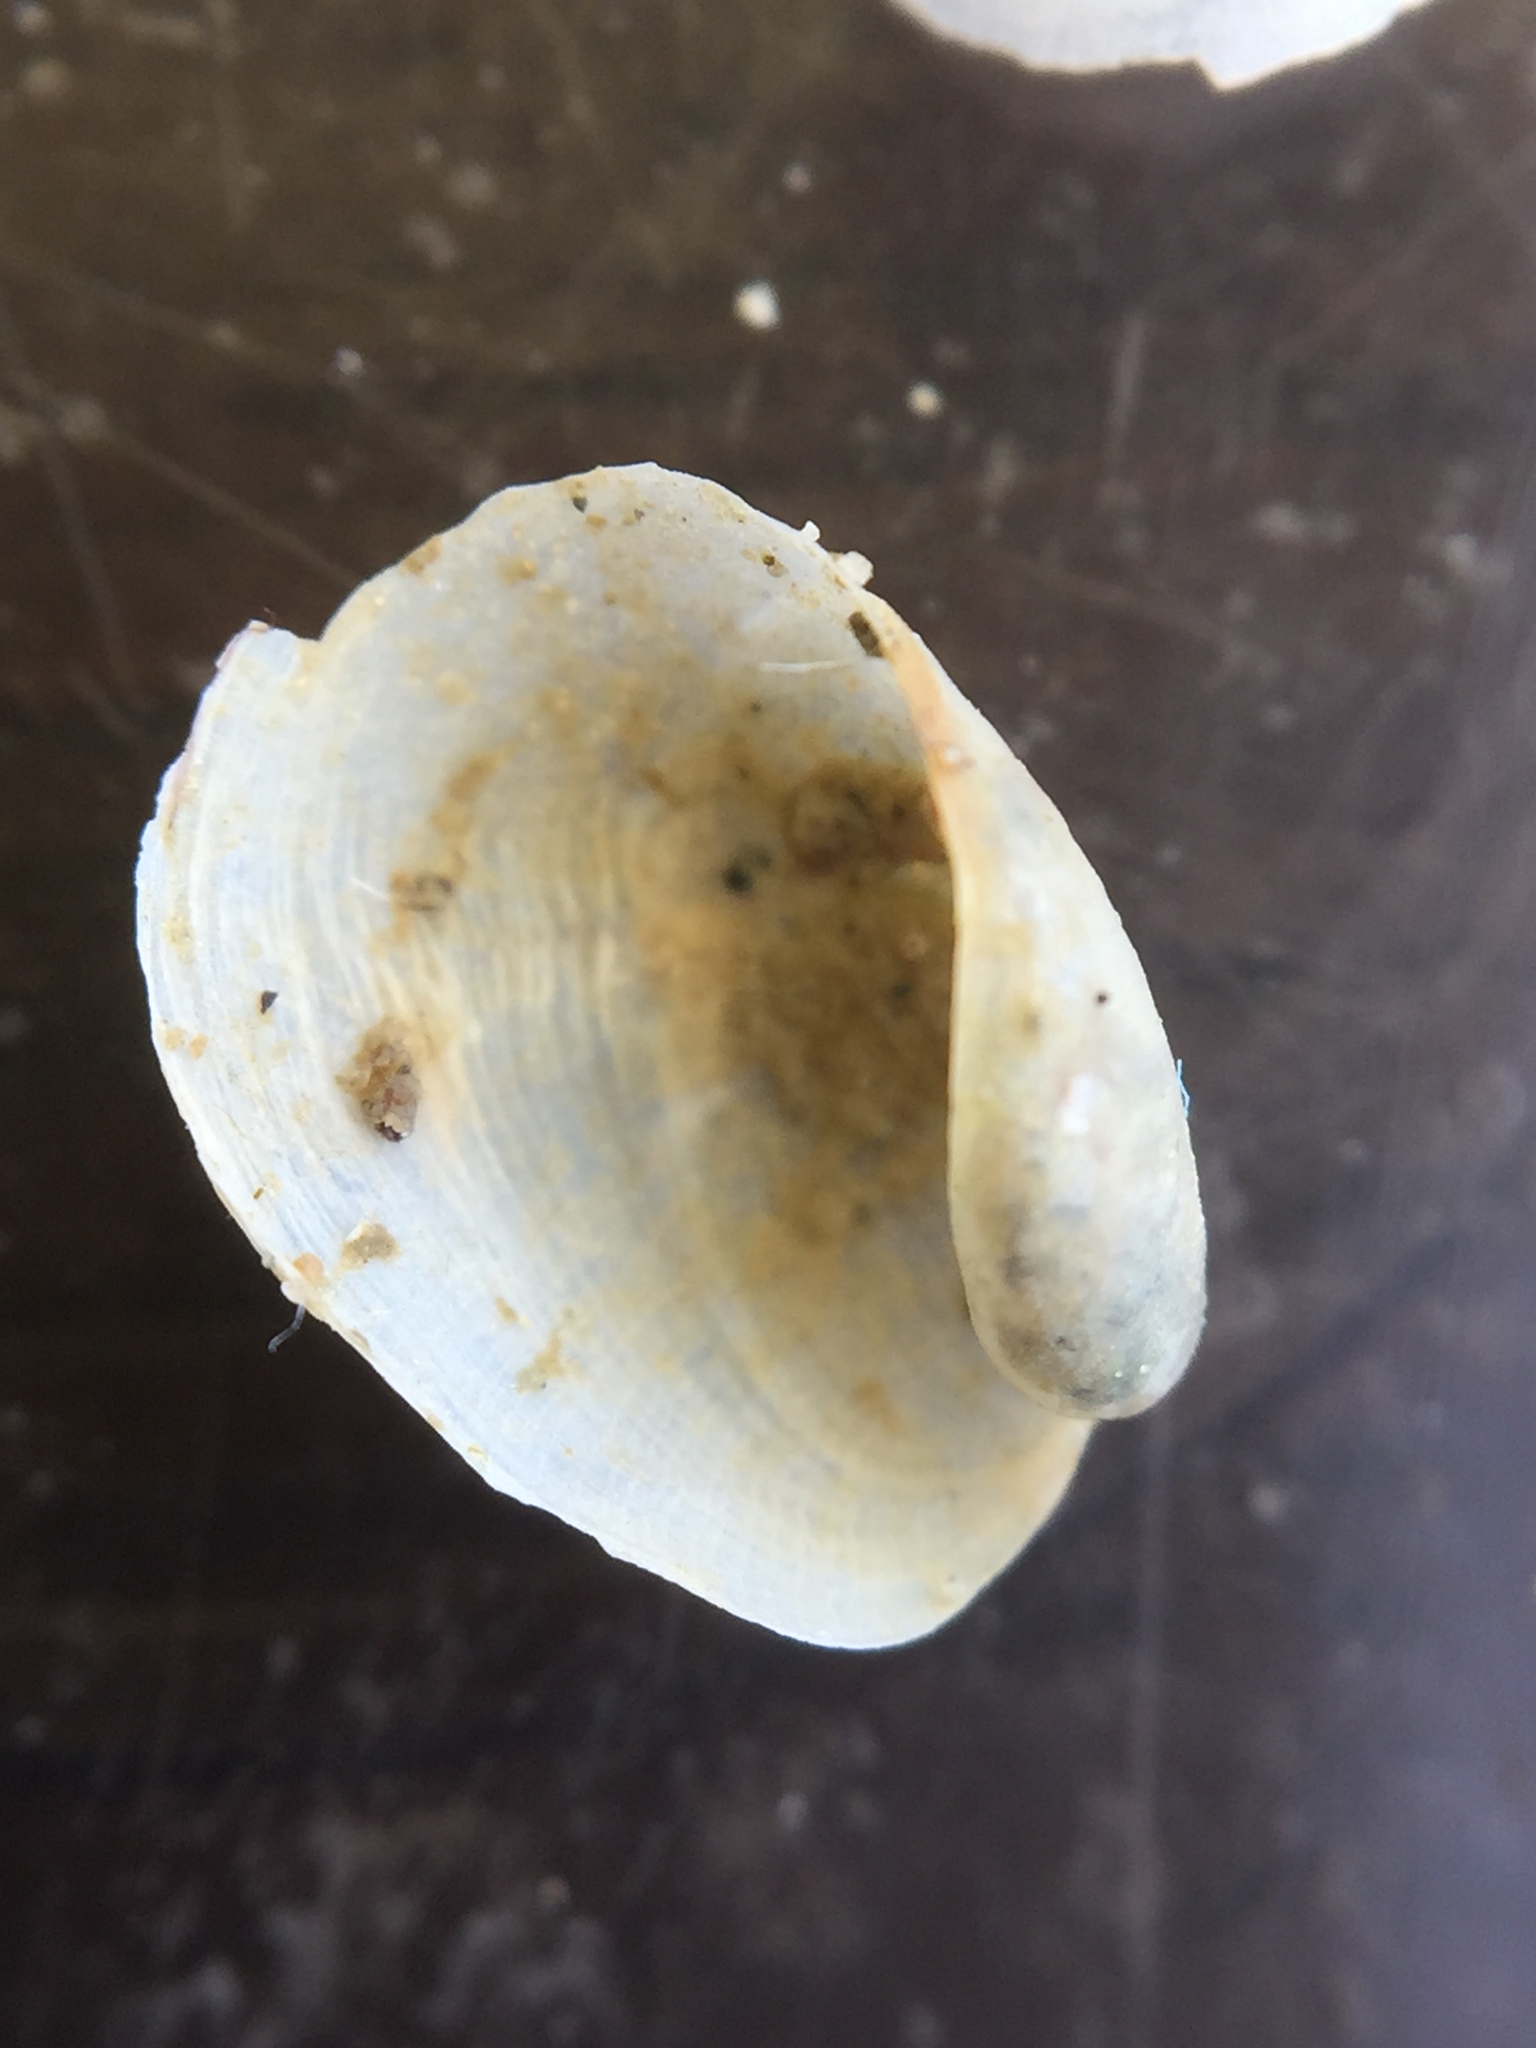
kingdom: Animalia
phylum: Mollusca
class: Gastropoda
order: Cephalaspidea
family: Philinidae
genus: Philine
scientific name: Philine auriformis
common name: Sea snail
